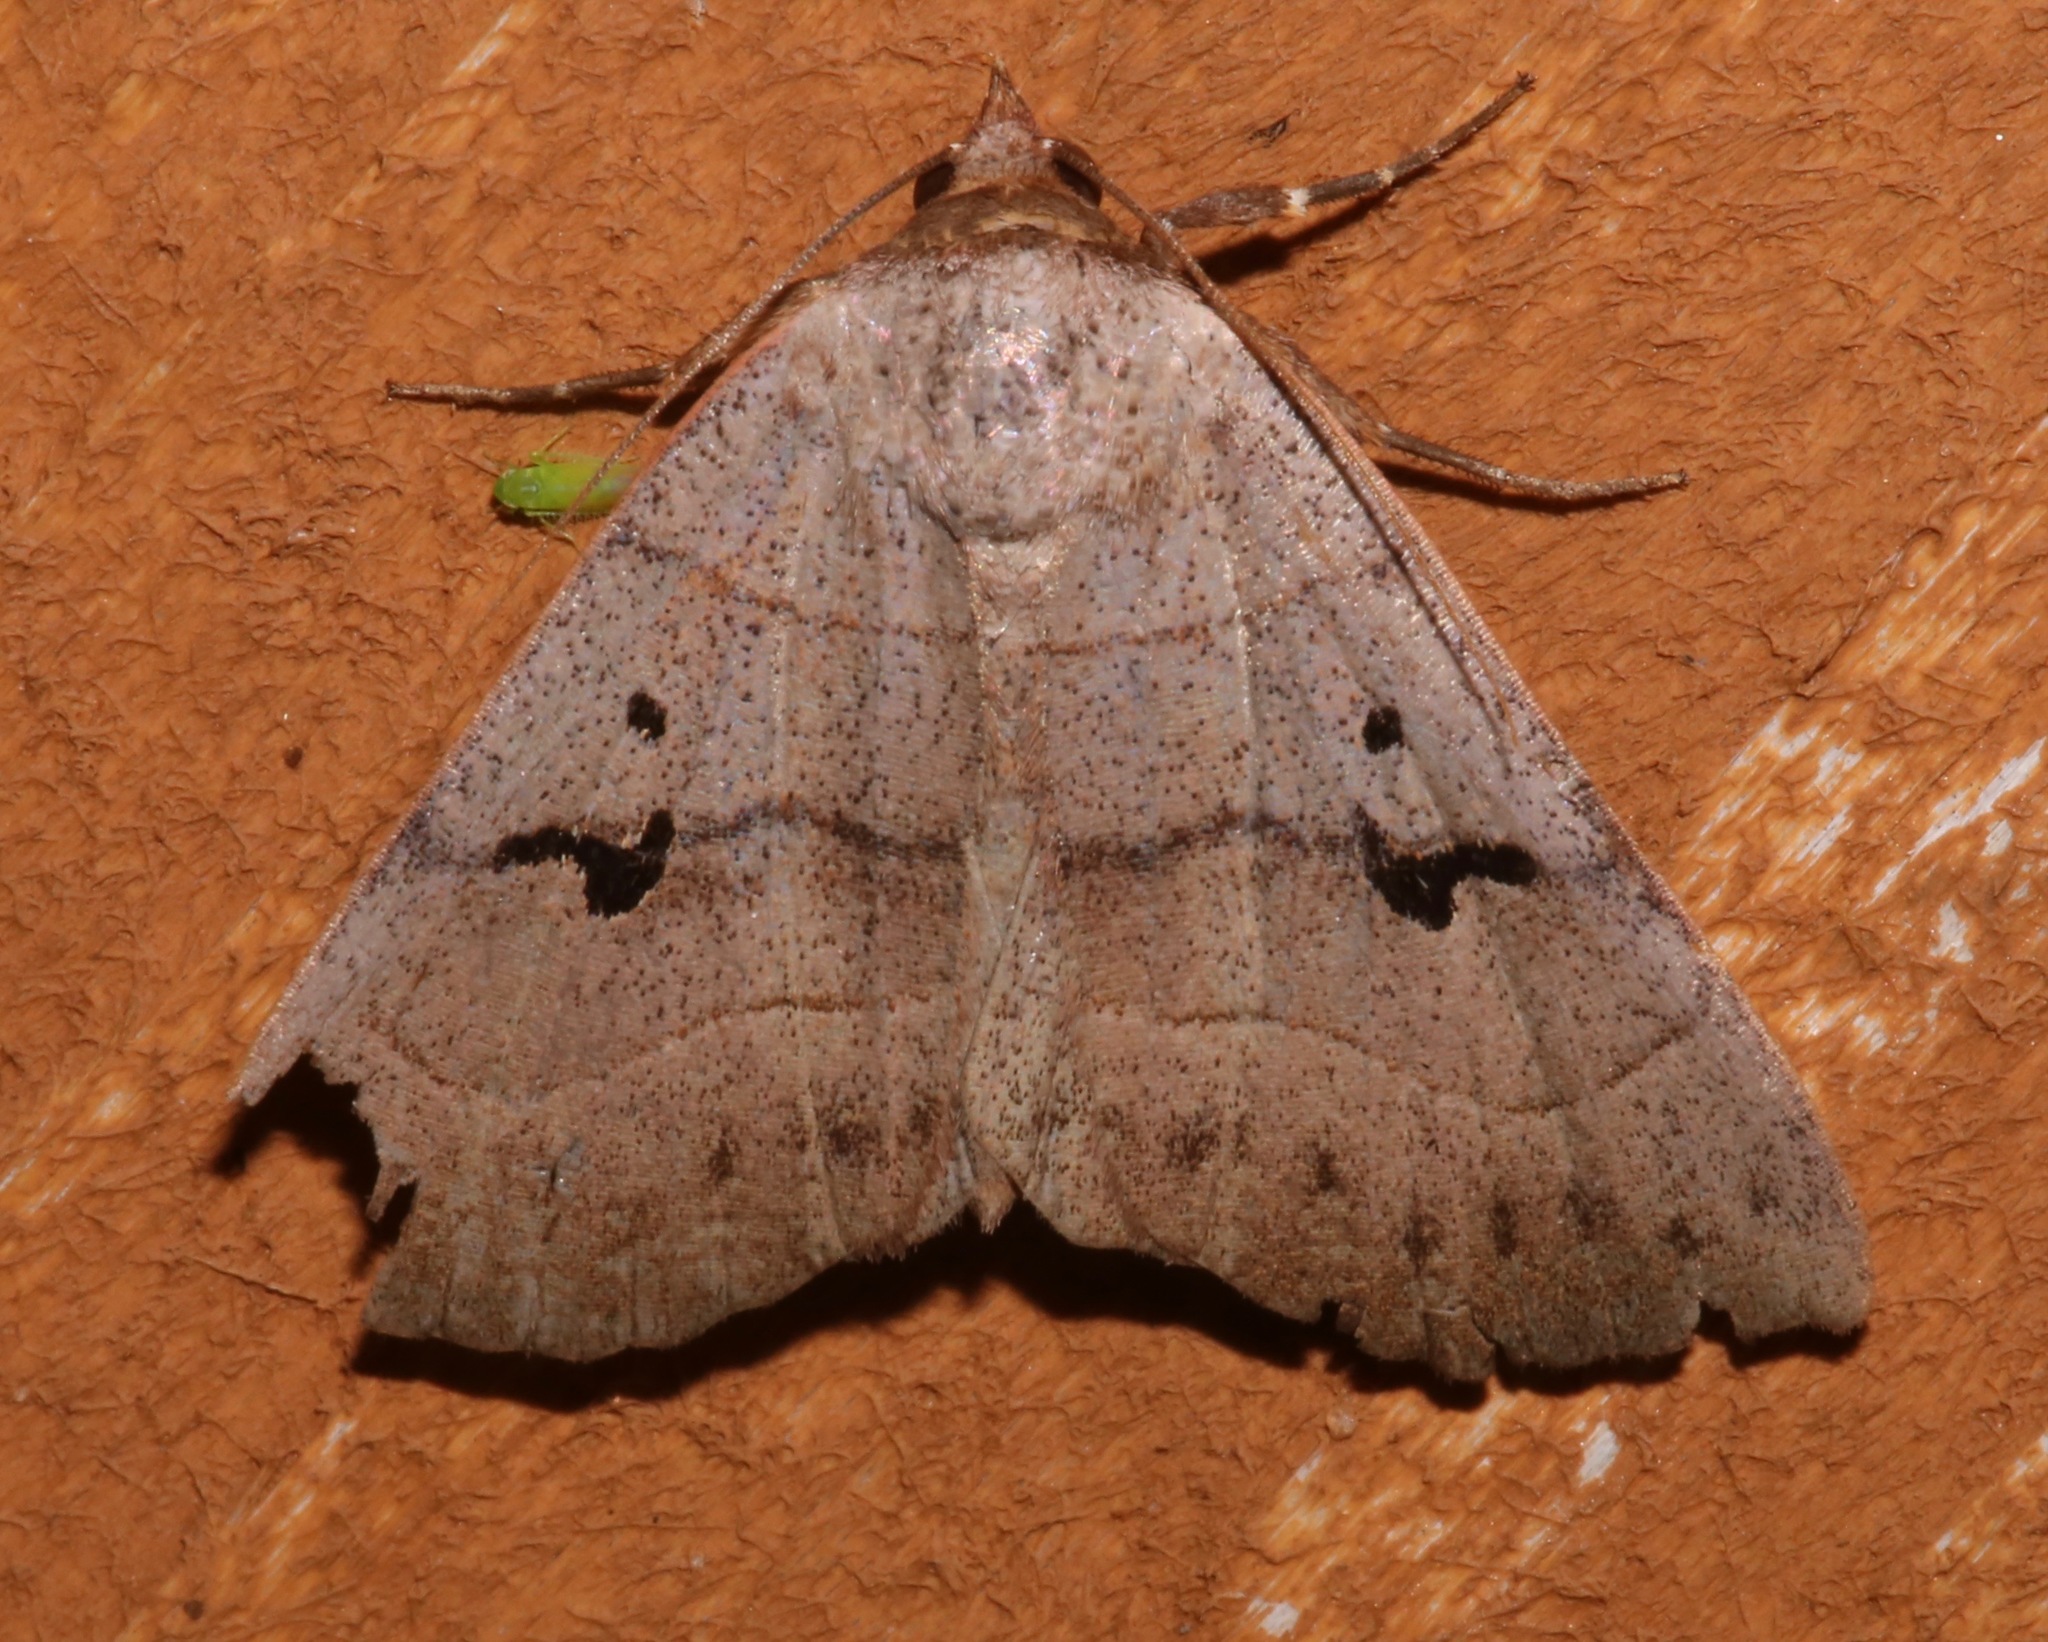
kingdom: Animalia
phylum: Arthropoda
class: Insecta
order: Lepidoptera
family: Erebidae
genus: Panopoda
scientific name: Panopoda carneicosta
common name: Brown panopoda moth
